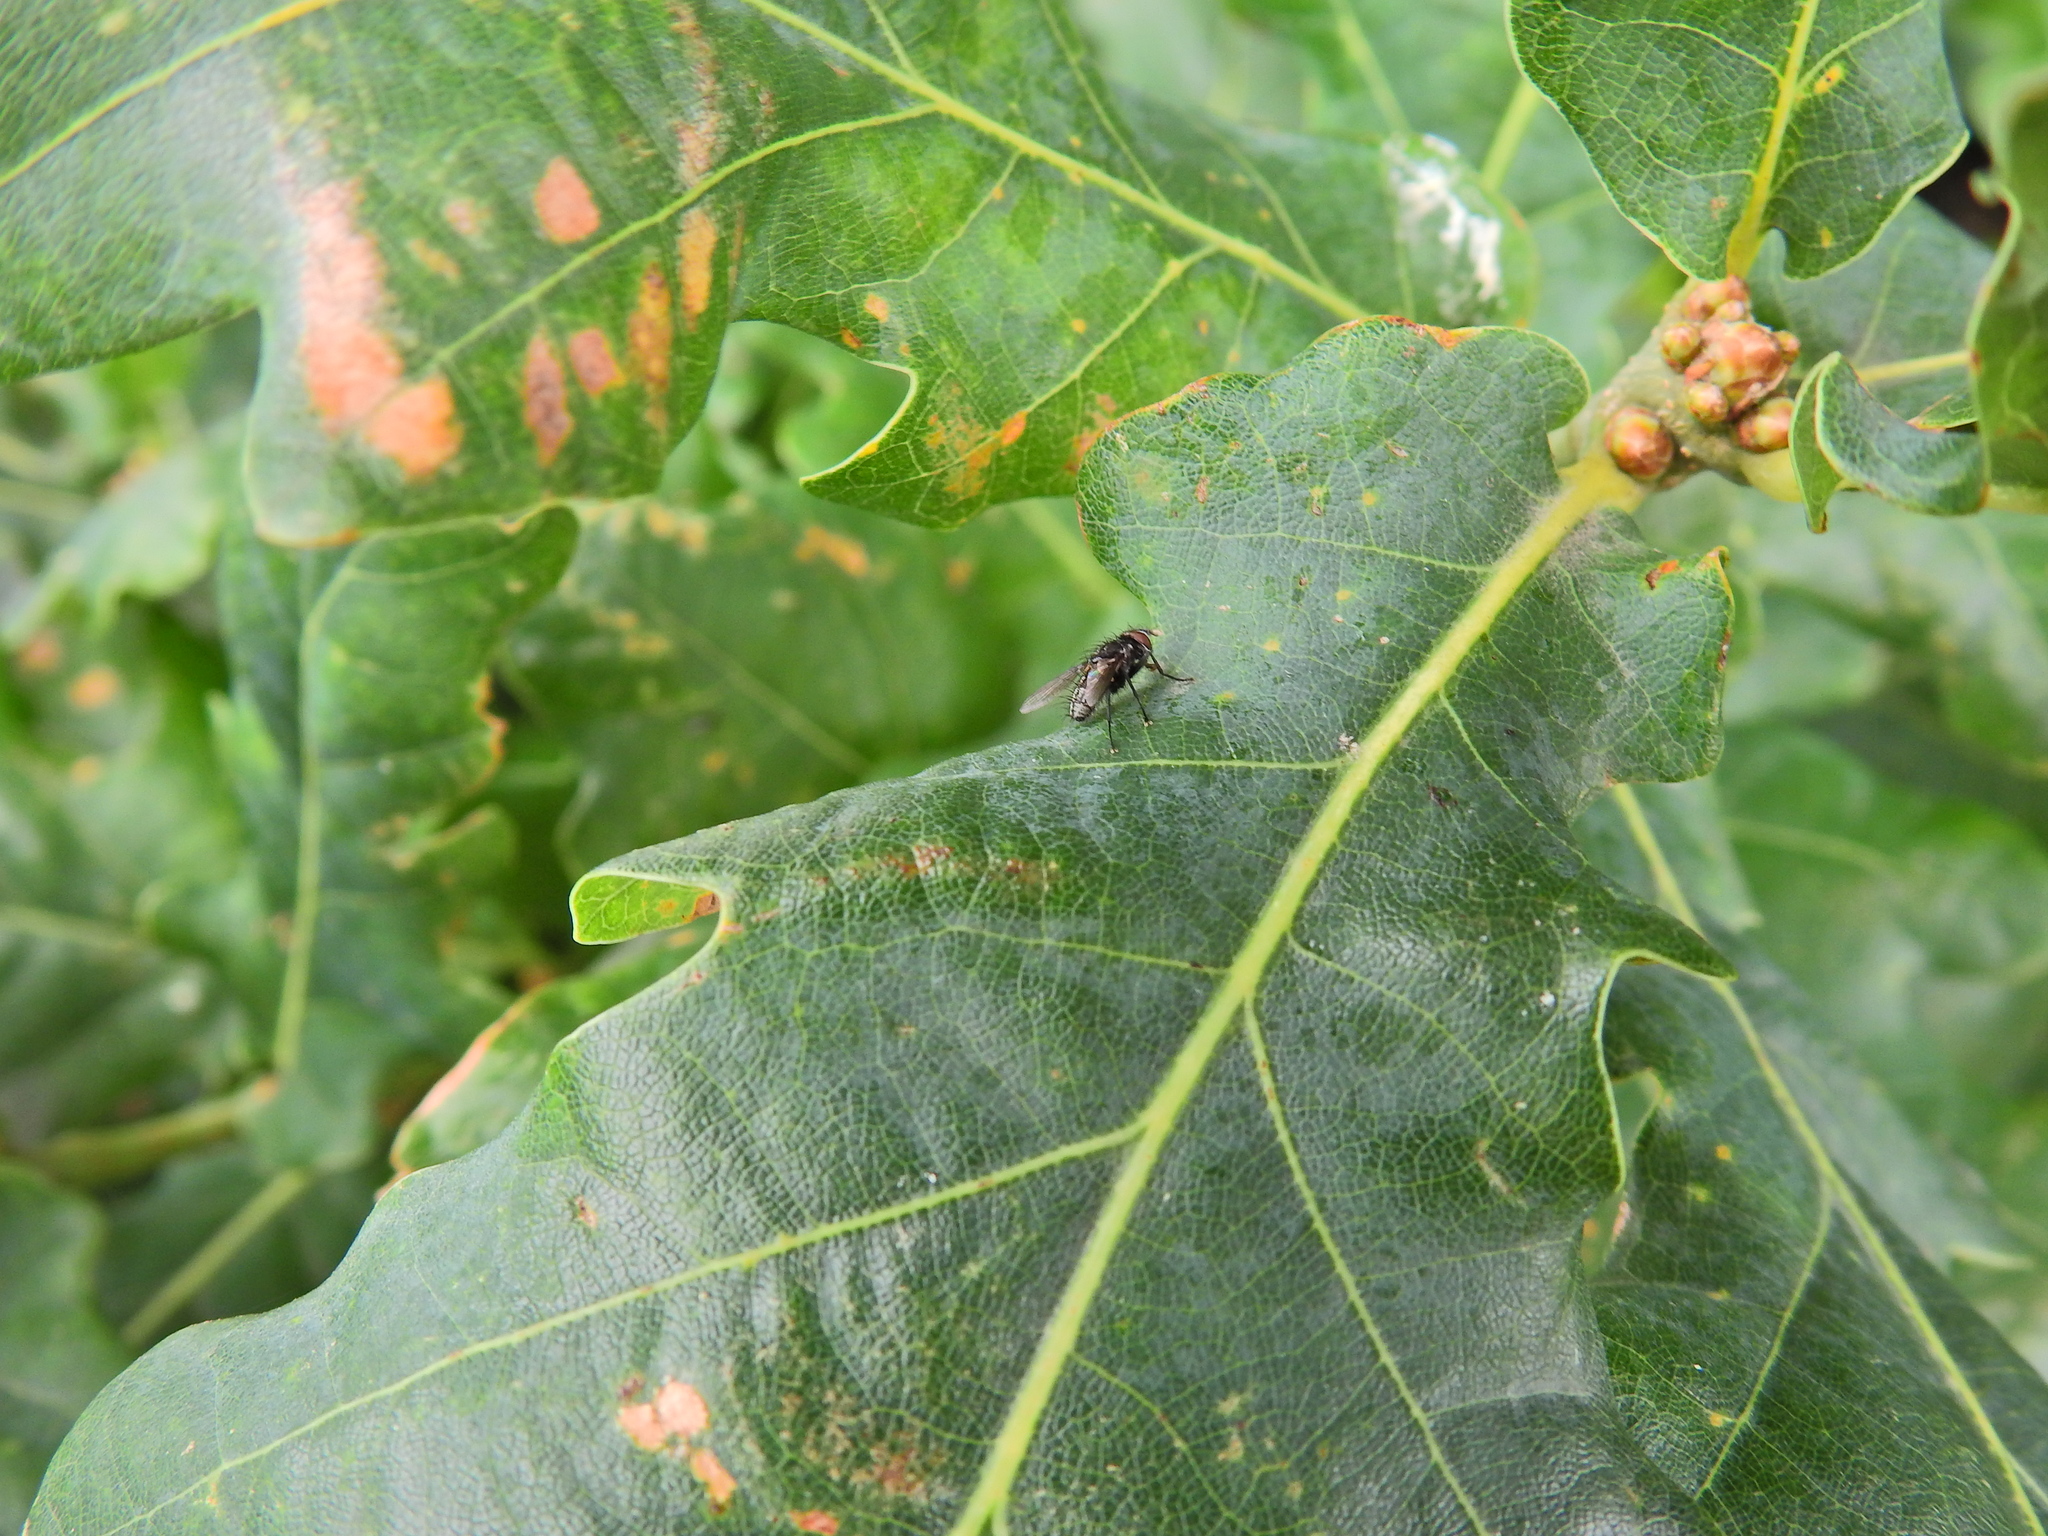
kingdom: Animalia
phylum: Arthropoda
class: Insecta
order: Diptera
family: Tachinidae
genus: Meigenia
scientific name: Meigenia
